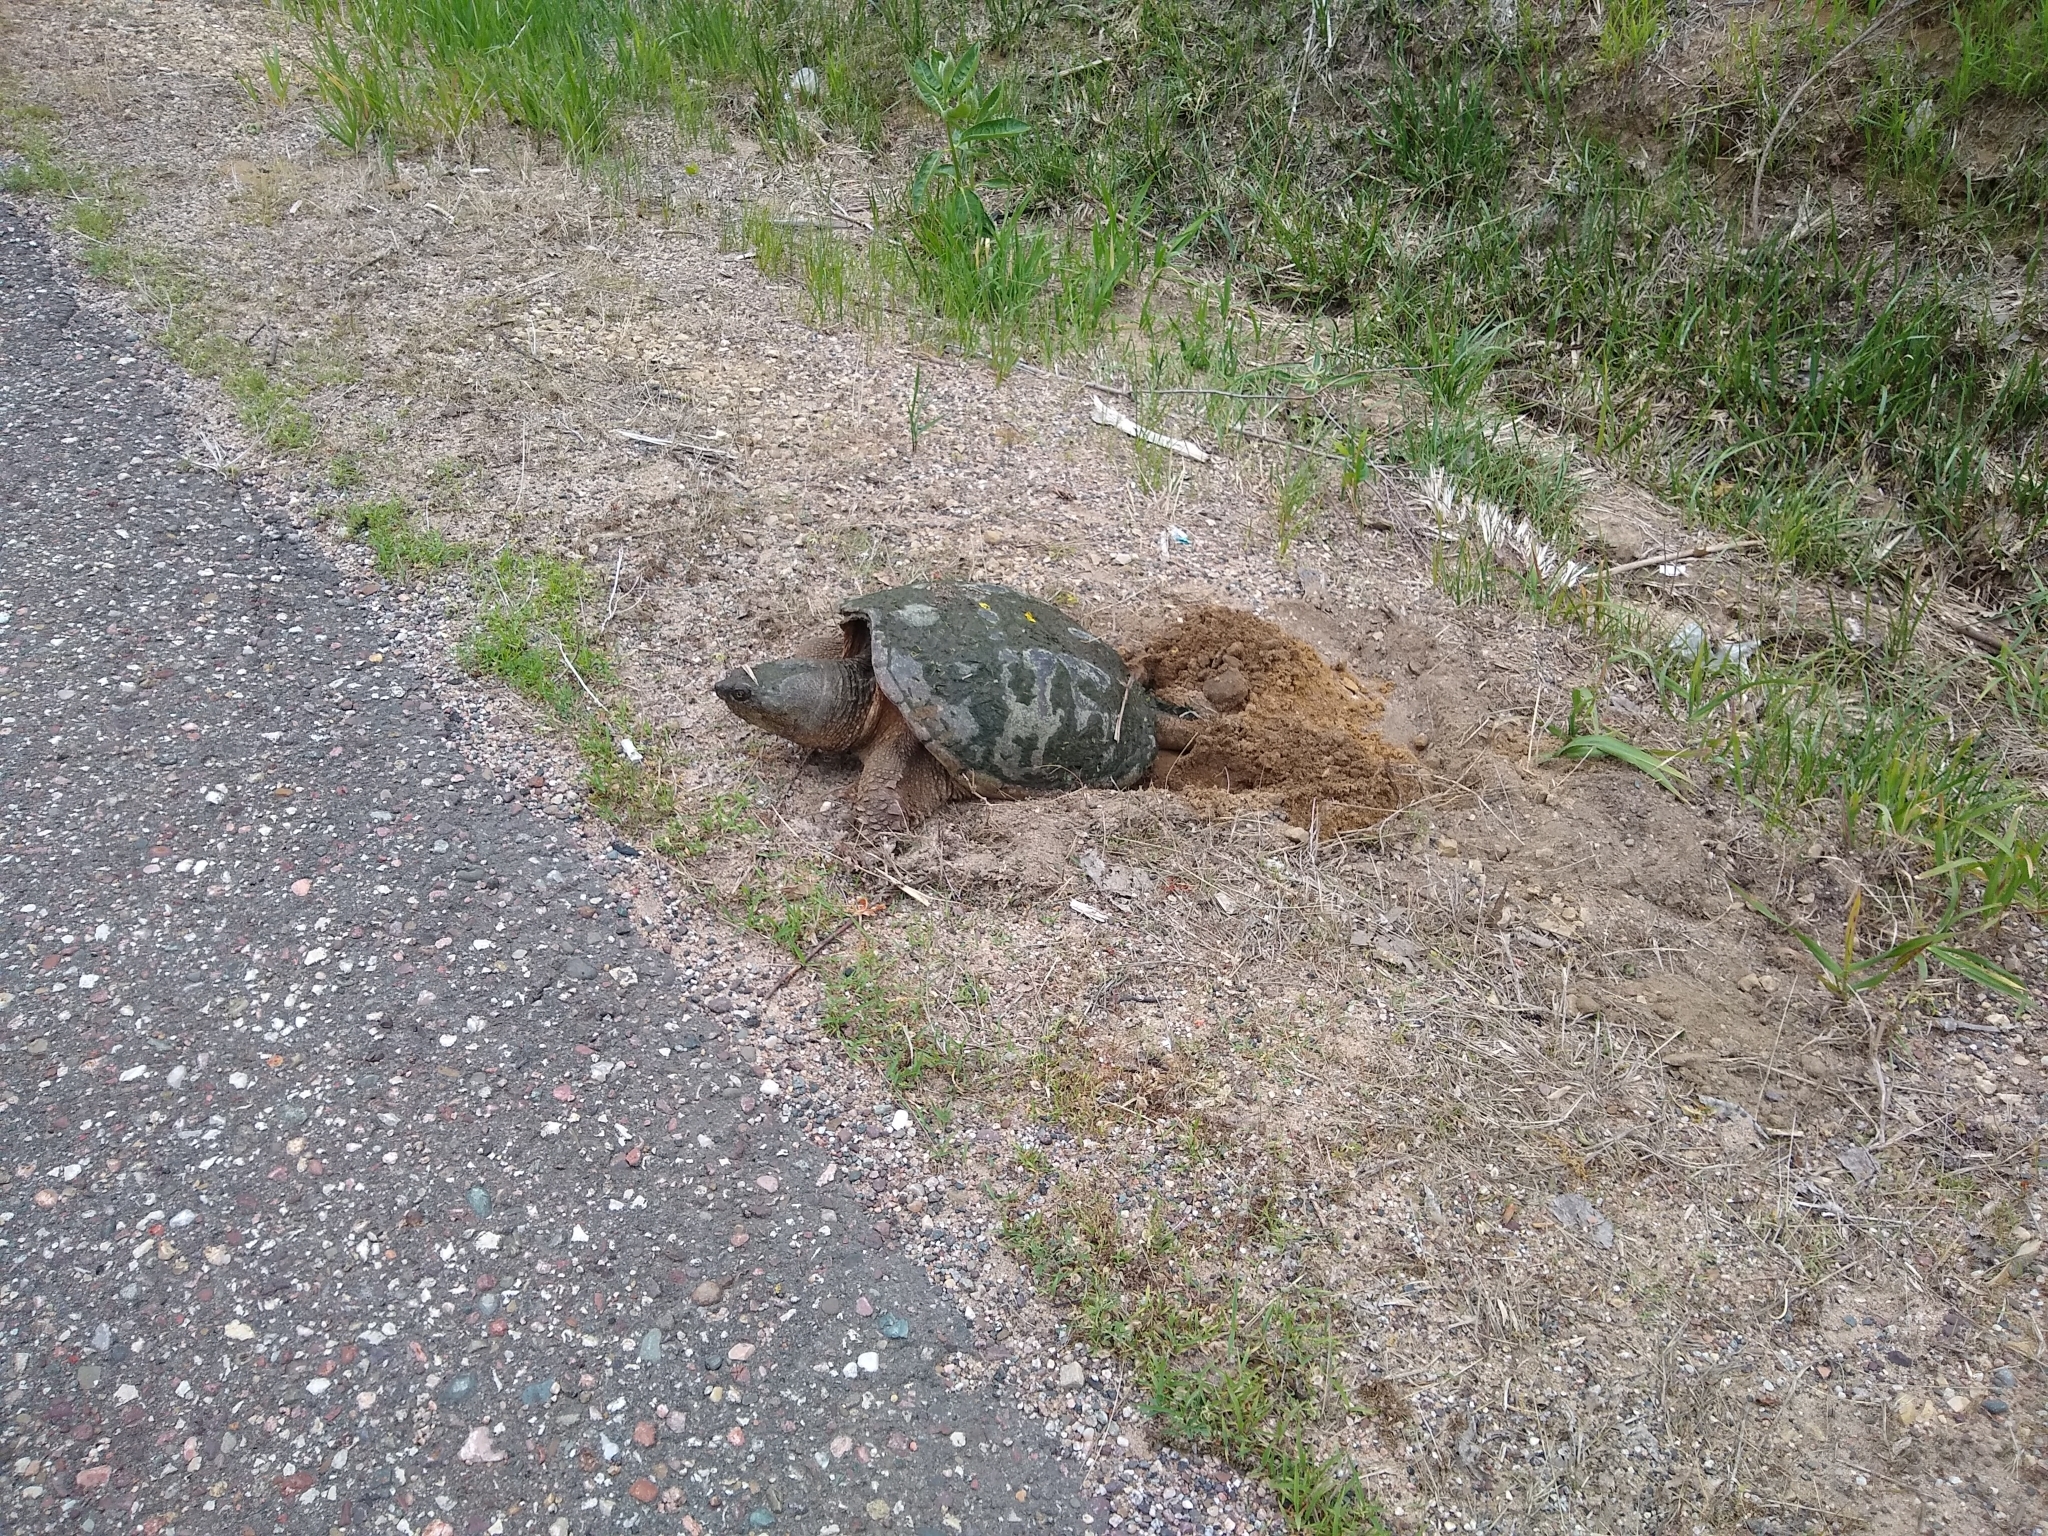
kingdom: Animalia
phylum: Chordata
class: Testudines
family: Chelydridae
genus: Chelydra
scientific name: Chelydra serpentina
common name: Common snapping turtle
